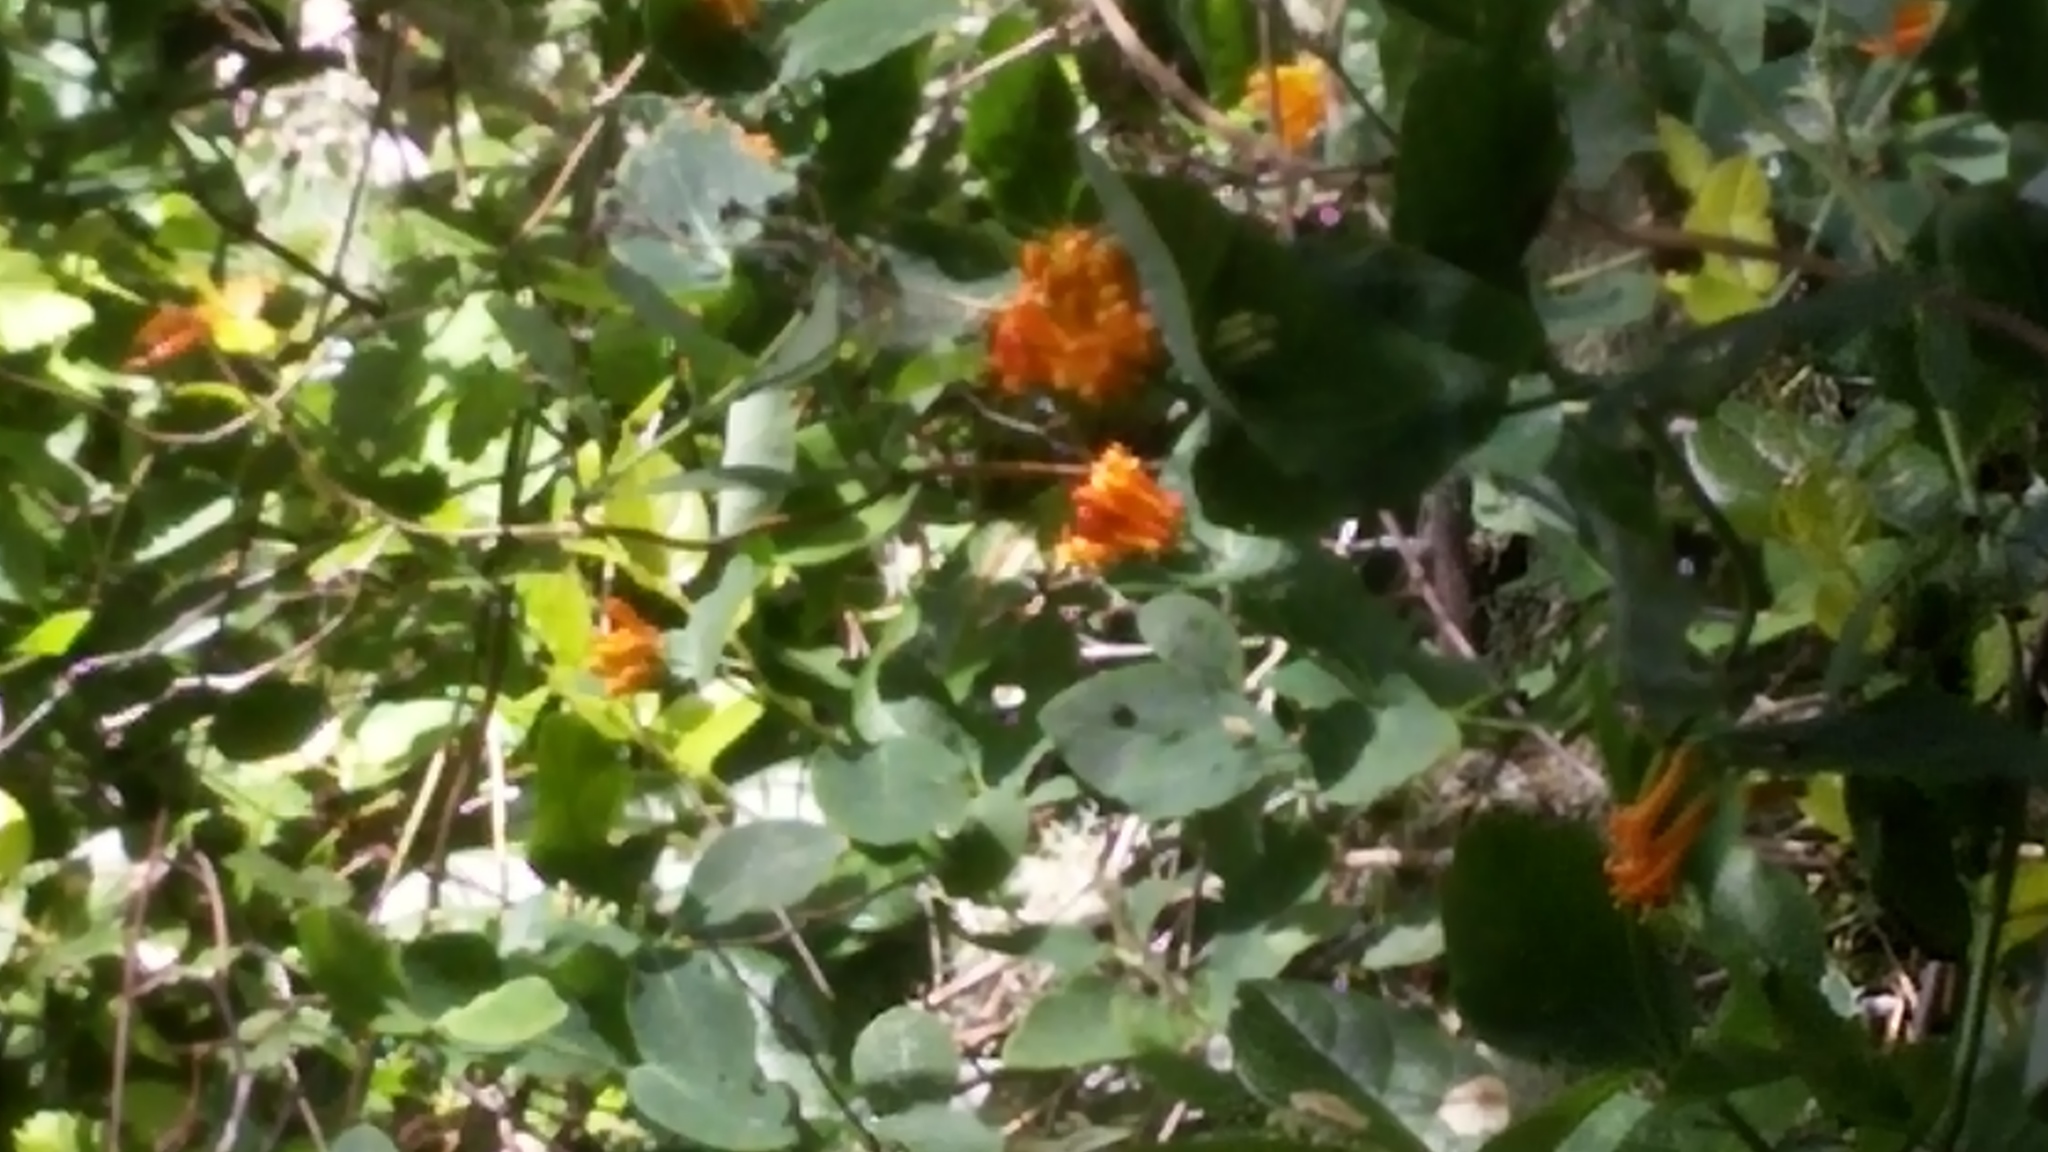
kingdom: Plantae
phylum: Tracheophyta
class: Magnoliopsida
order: Dipsacales
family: Caprifoliaceae
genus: Lonicera
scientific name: Lonicera ciliosa
